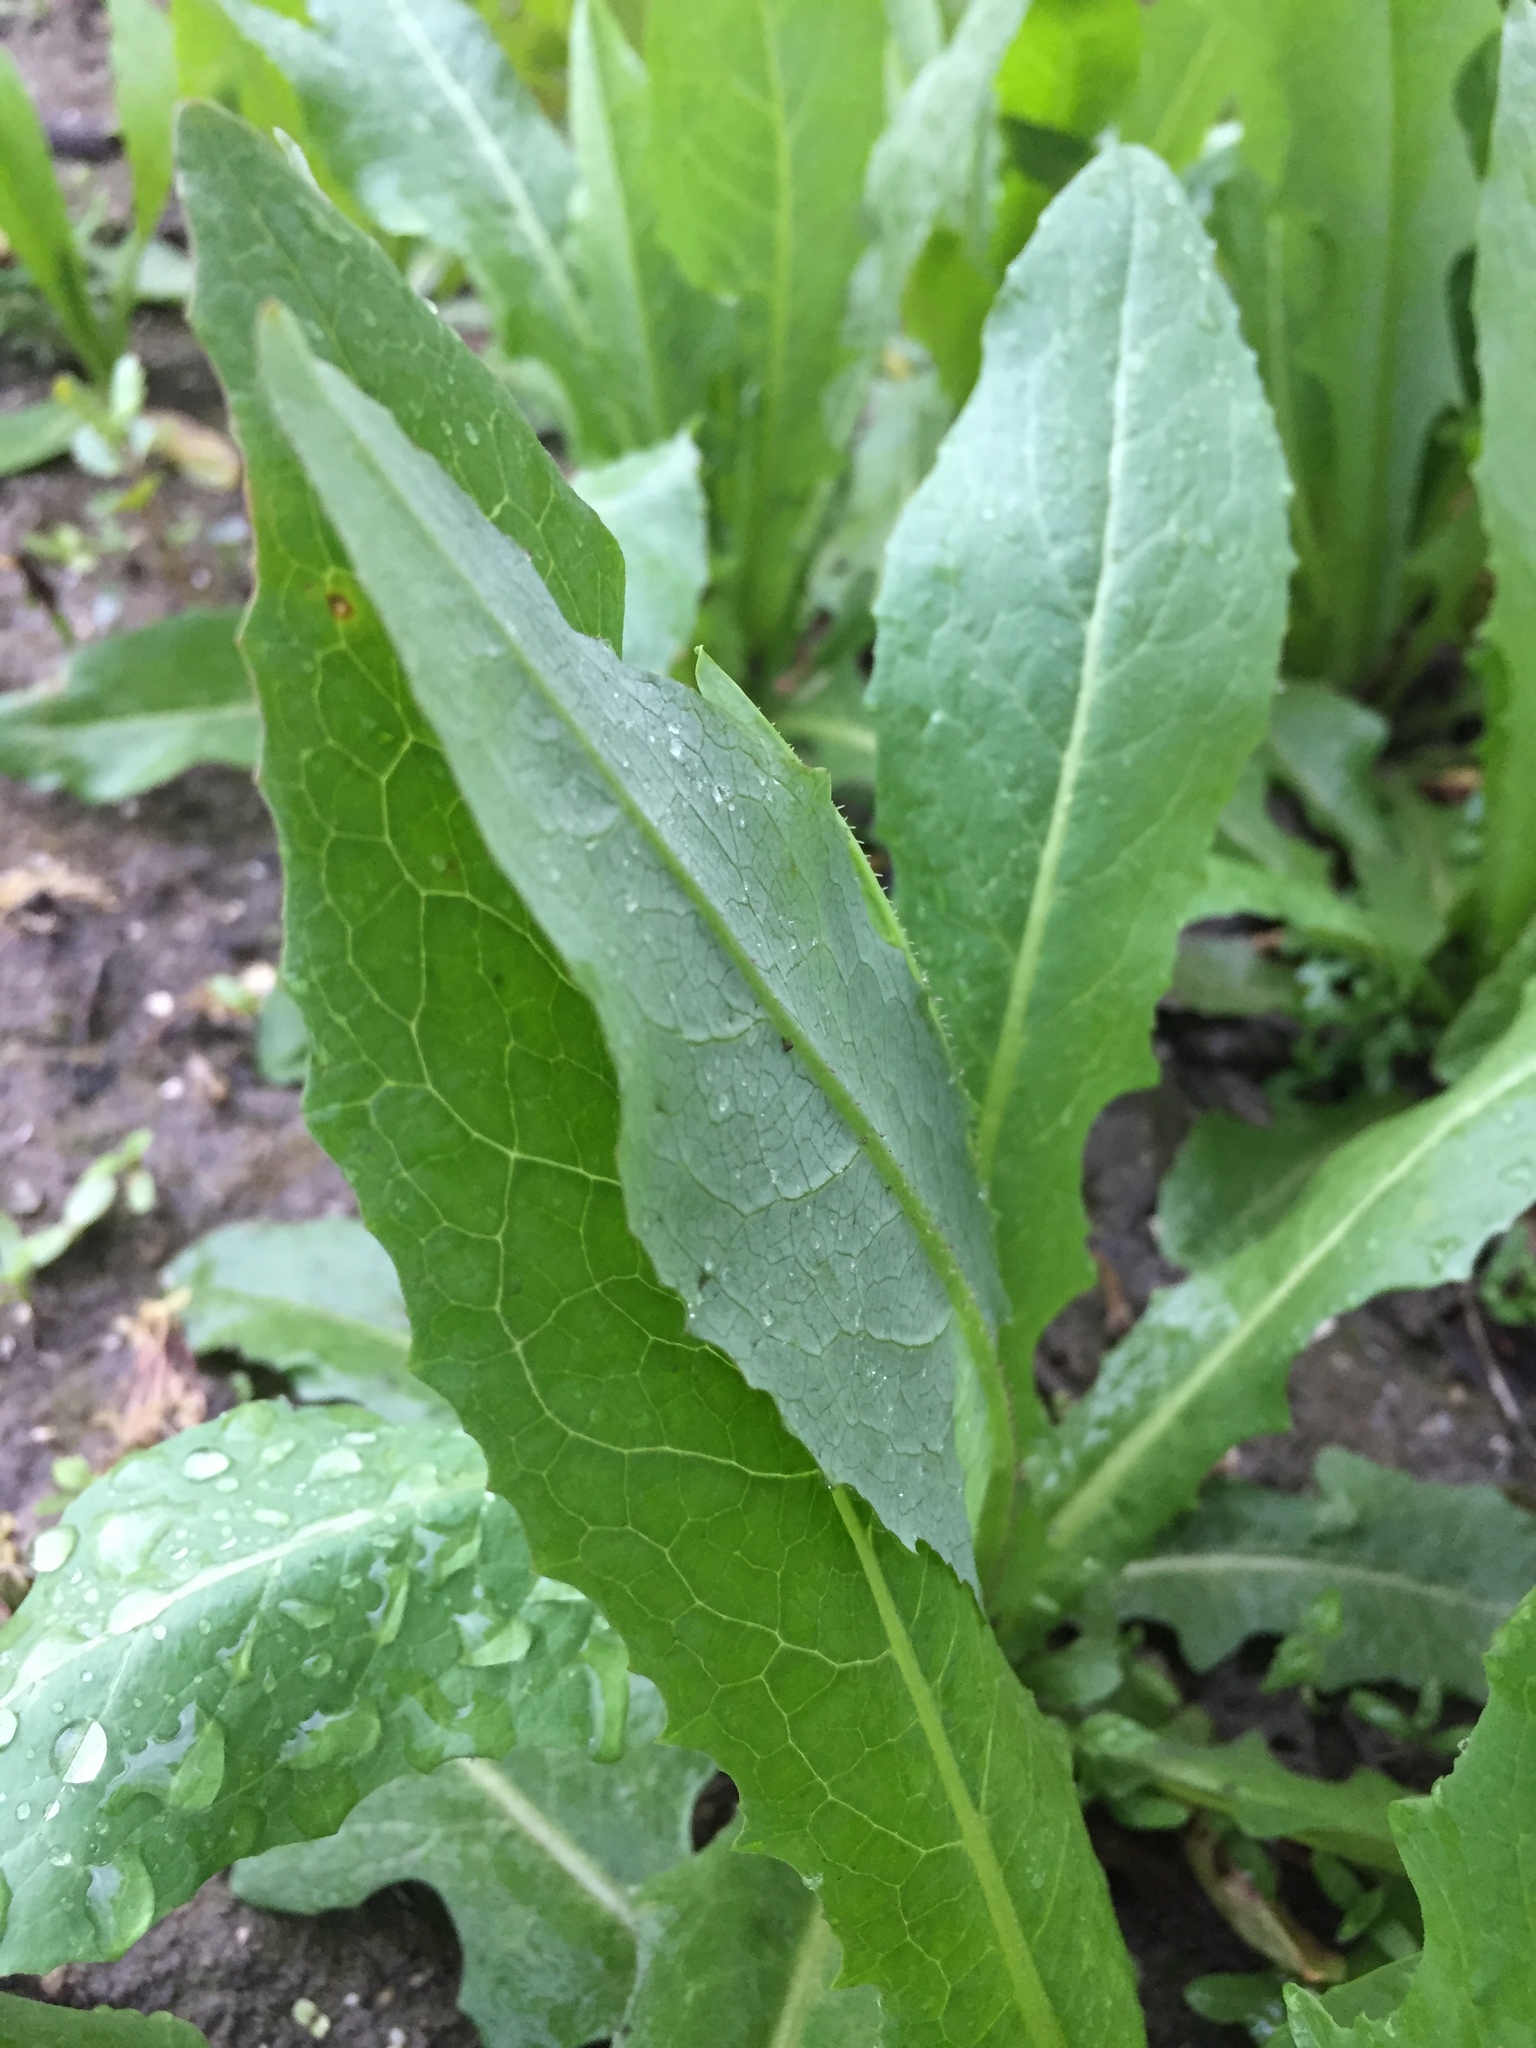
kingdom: Plantae
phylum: Tracheophyta
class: Magnoliopsida
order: Asterales
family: Asteraceae
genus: Sonchus
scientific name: Sonchus arvensis
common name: Perennial sow-thistle
